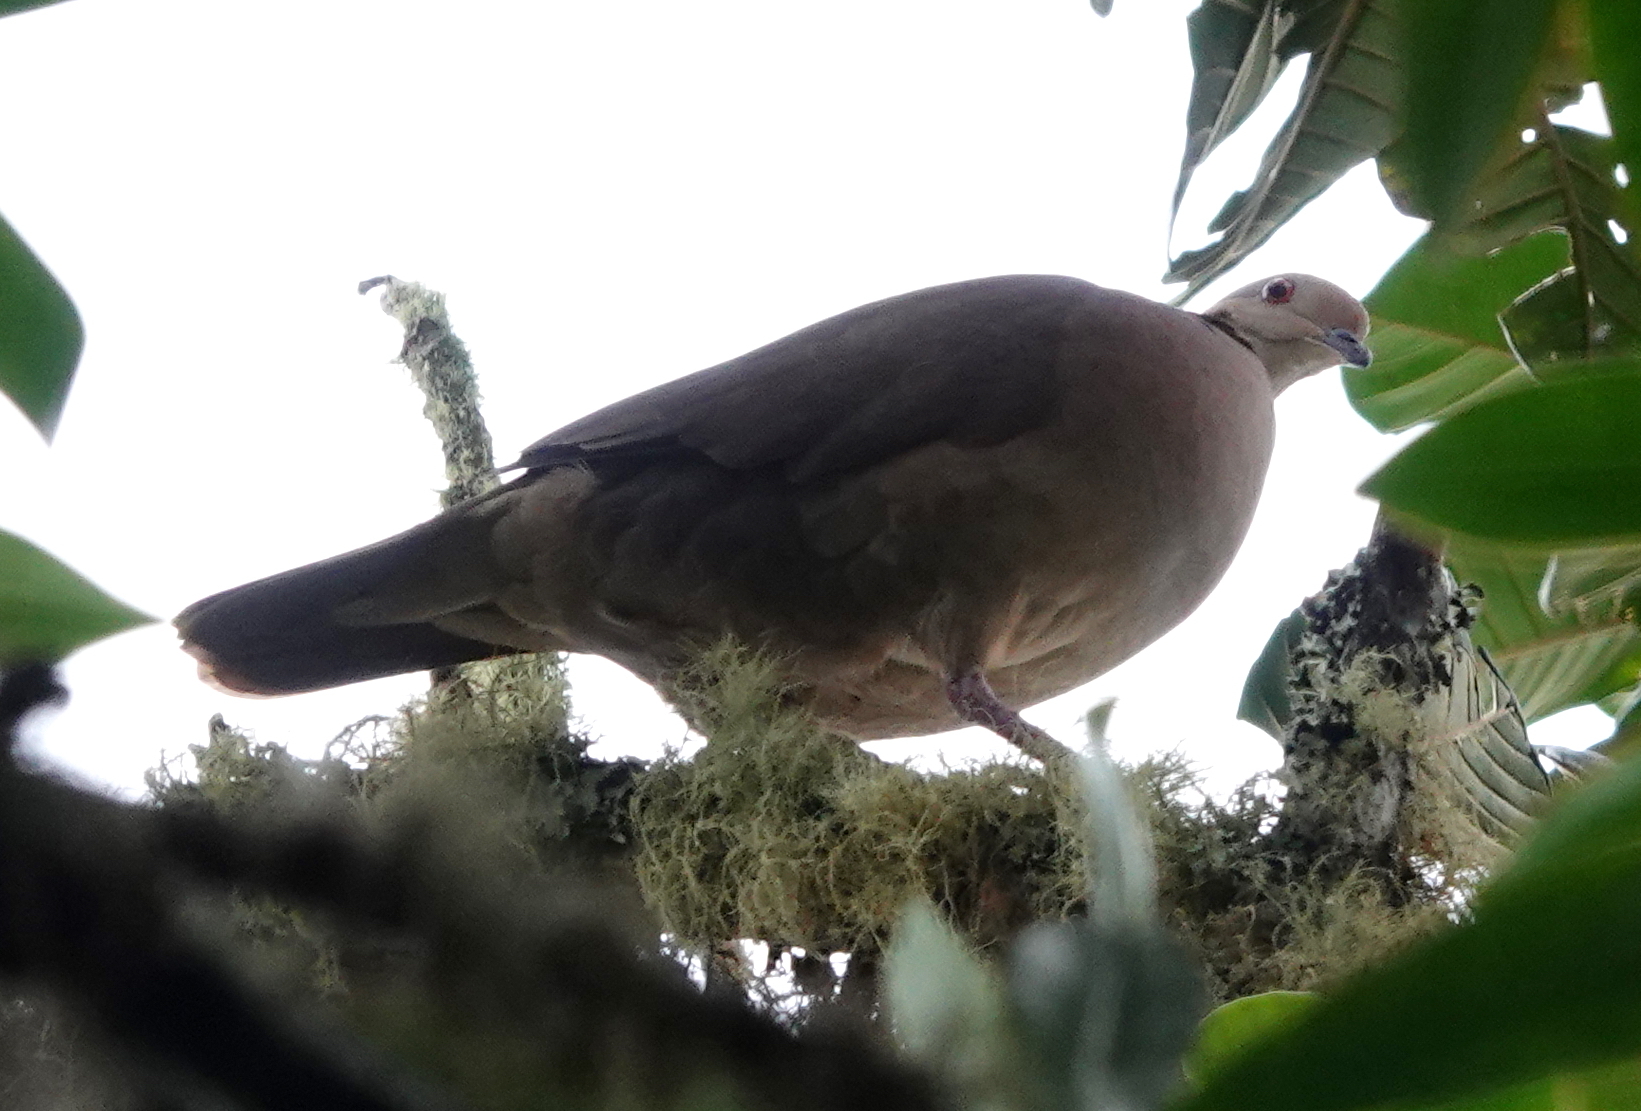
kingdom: Animalia
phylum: Chordata
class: Aves
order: Columbiformes
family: Columbidae
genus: Zentrygon
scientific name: Zentrygon linearis
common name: Lined quail-dove
